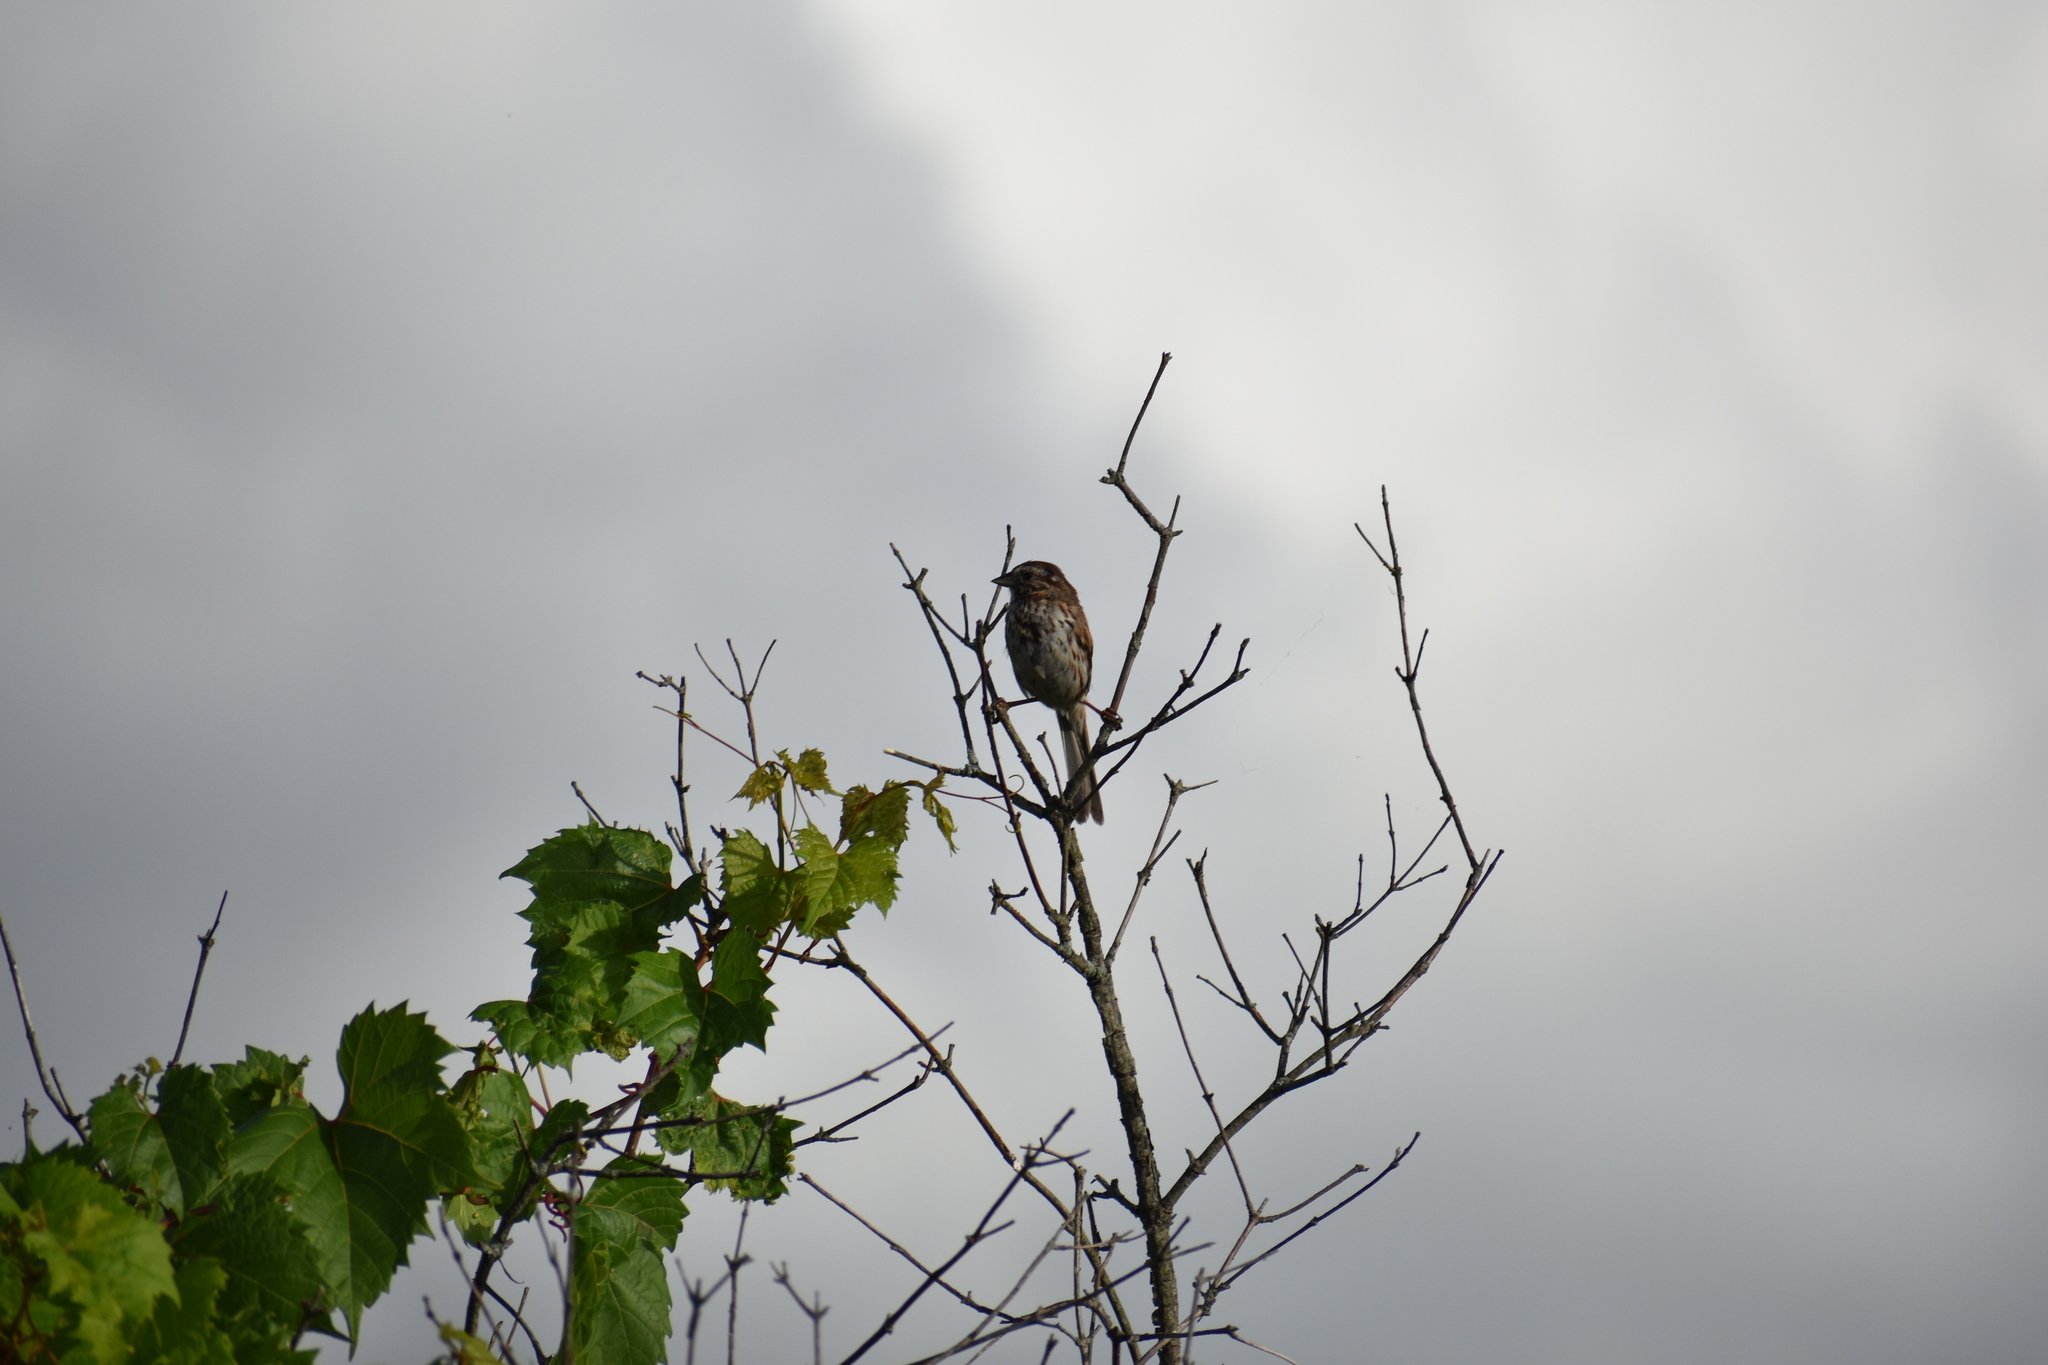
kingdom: Animalia
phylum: Chordata
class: Aves
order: Passeriformes
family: Passerellidae
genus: Melospiza
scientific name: Melospiza melodia
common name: Song sparrow
